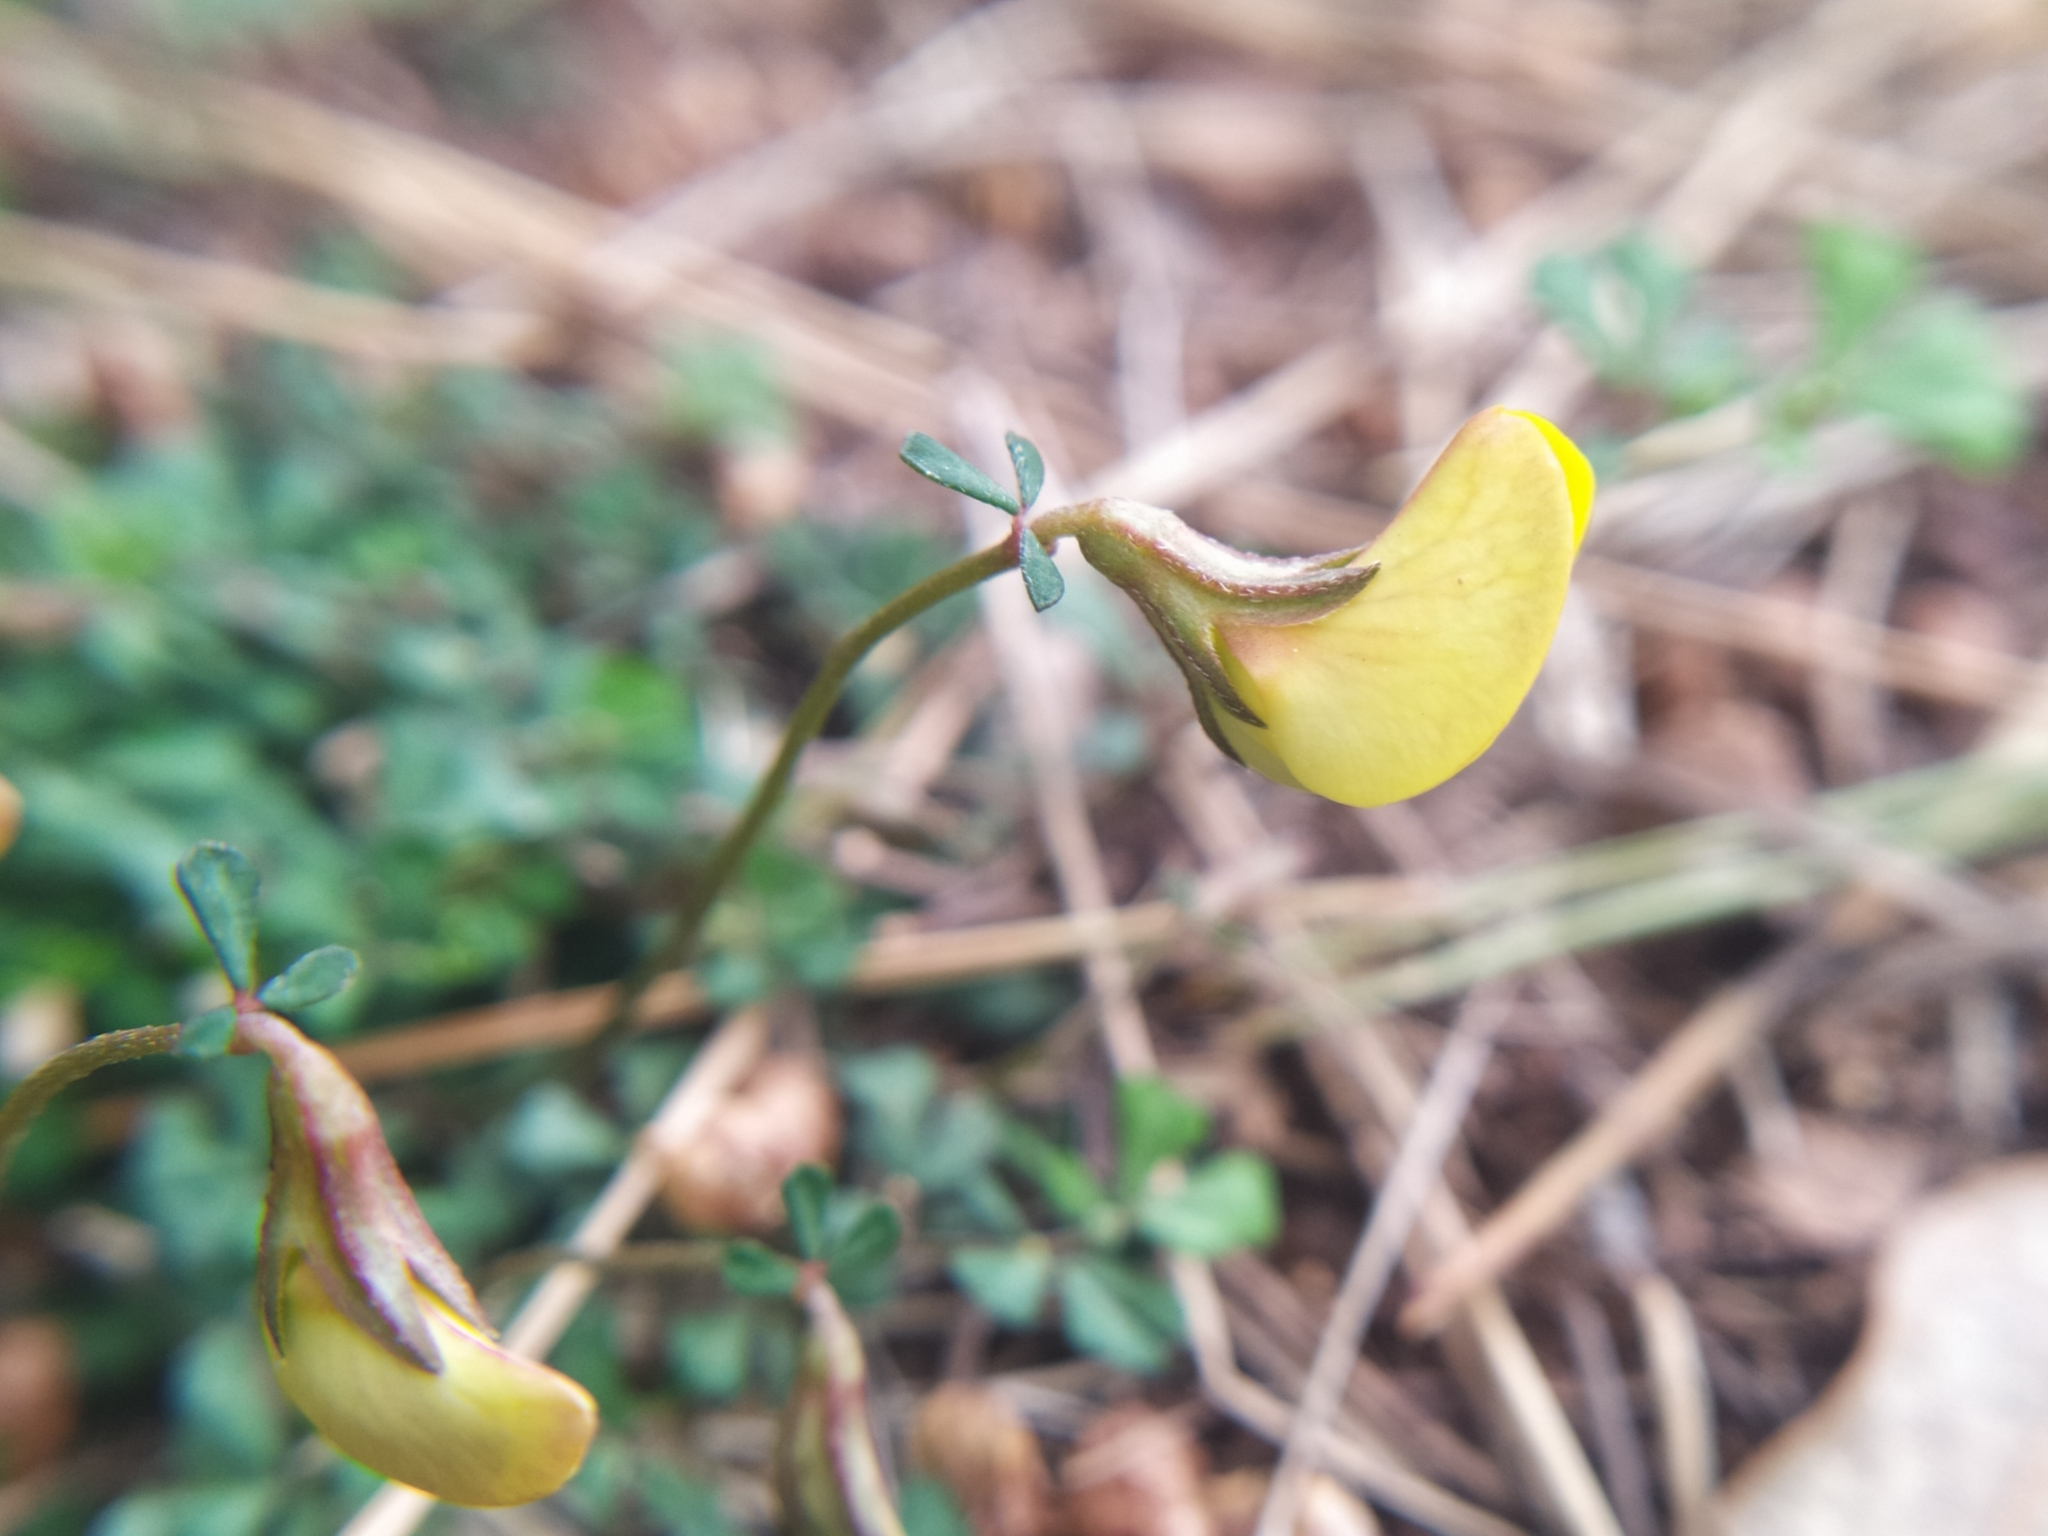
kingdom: Plantae
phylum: Tracheophyta
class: Magnoliopsida
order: Fabales
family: Fabaceae
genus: Lotus
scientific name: Lotus tetraphyllus
